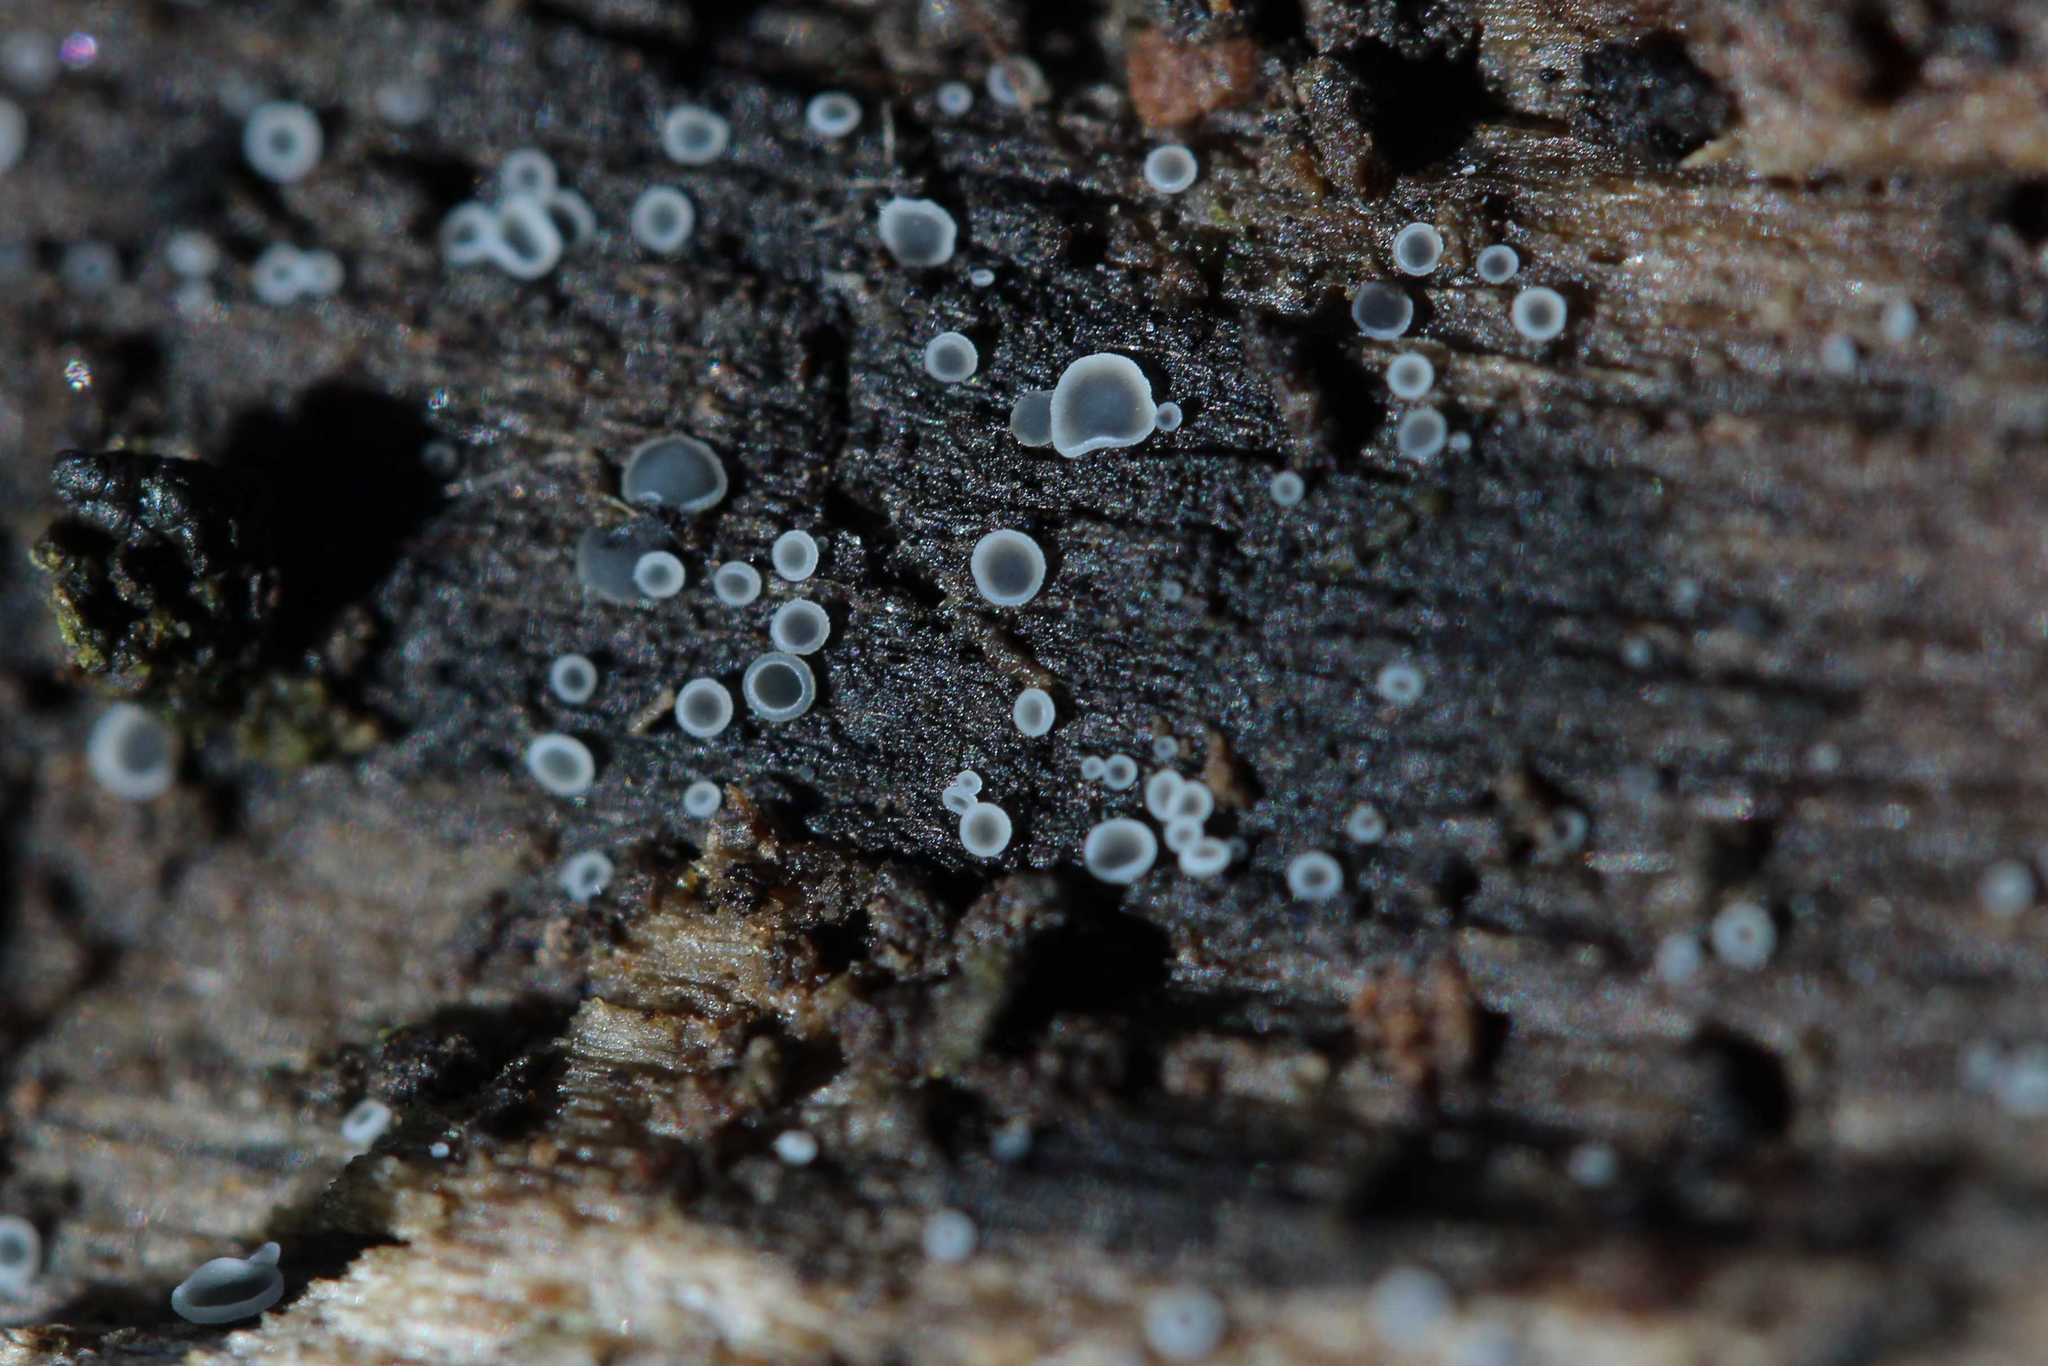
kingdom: Fungi
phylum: Ascomycota
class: Leotiomycetes
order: Helotiales
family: Mollisiaceae
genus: Mollisia
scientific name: Mollisia
